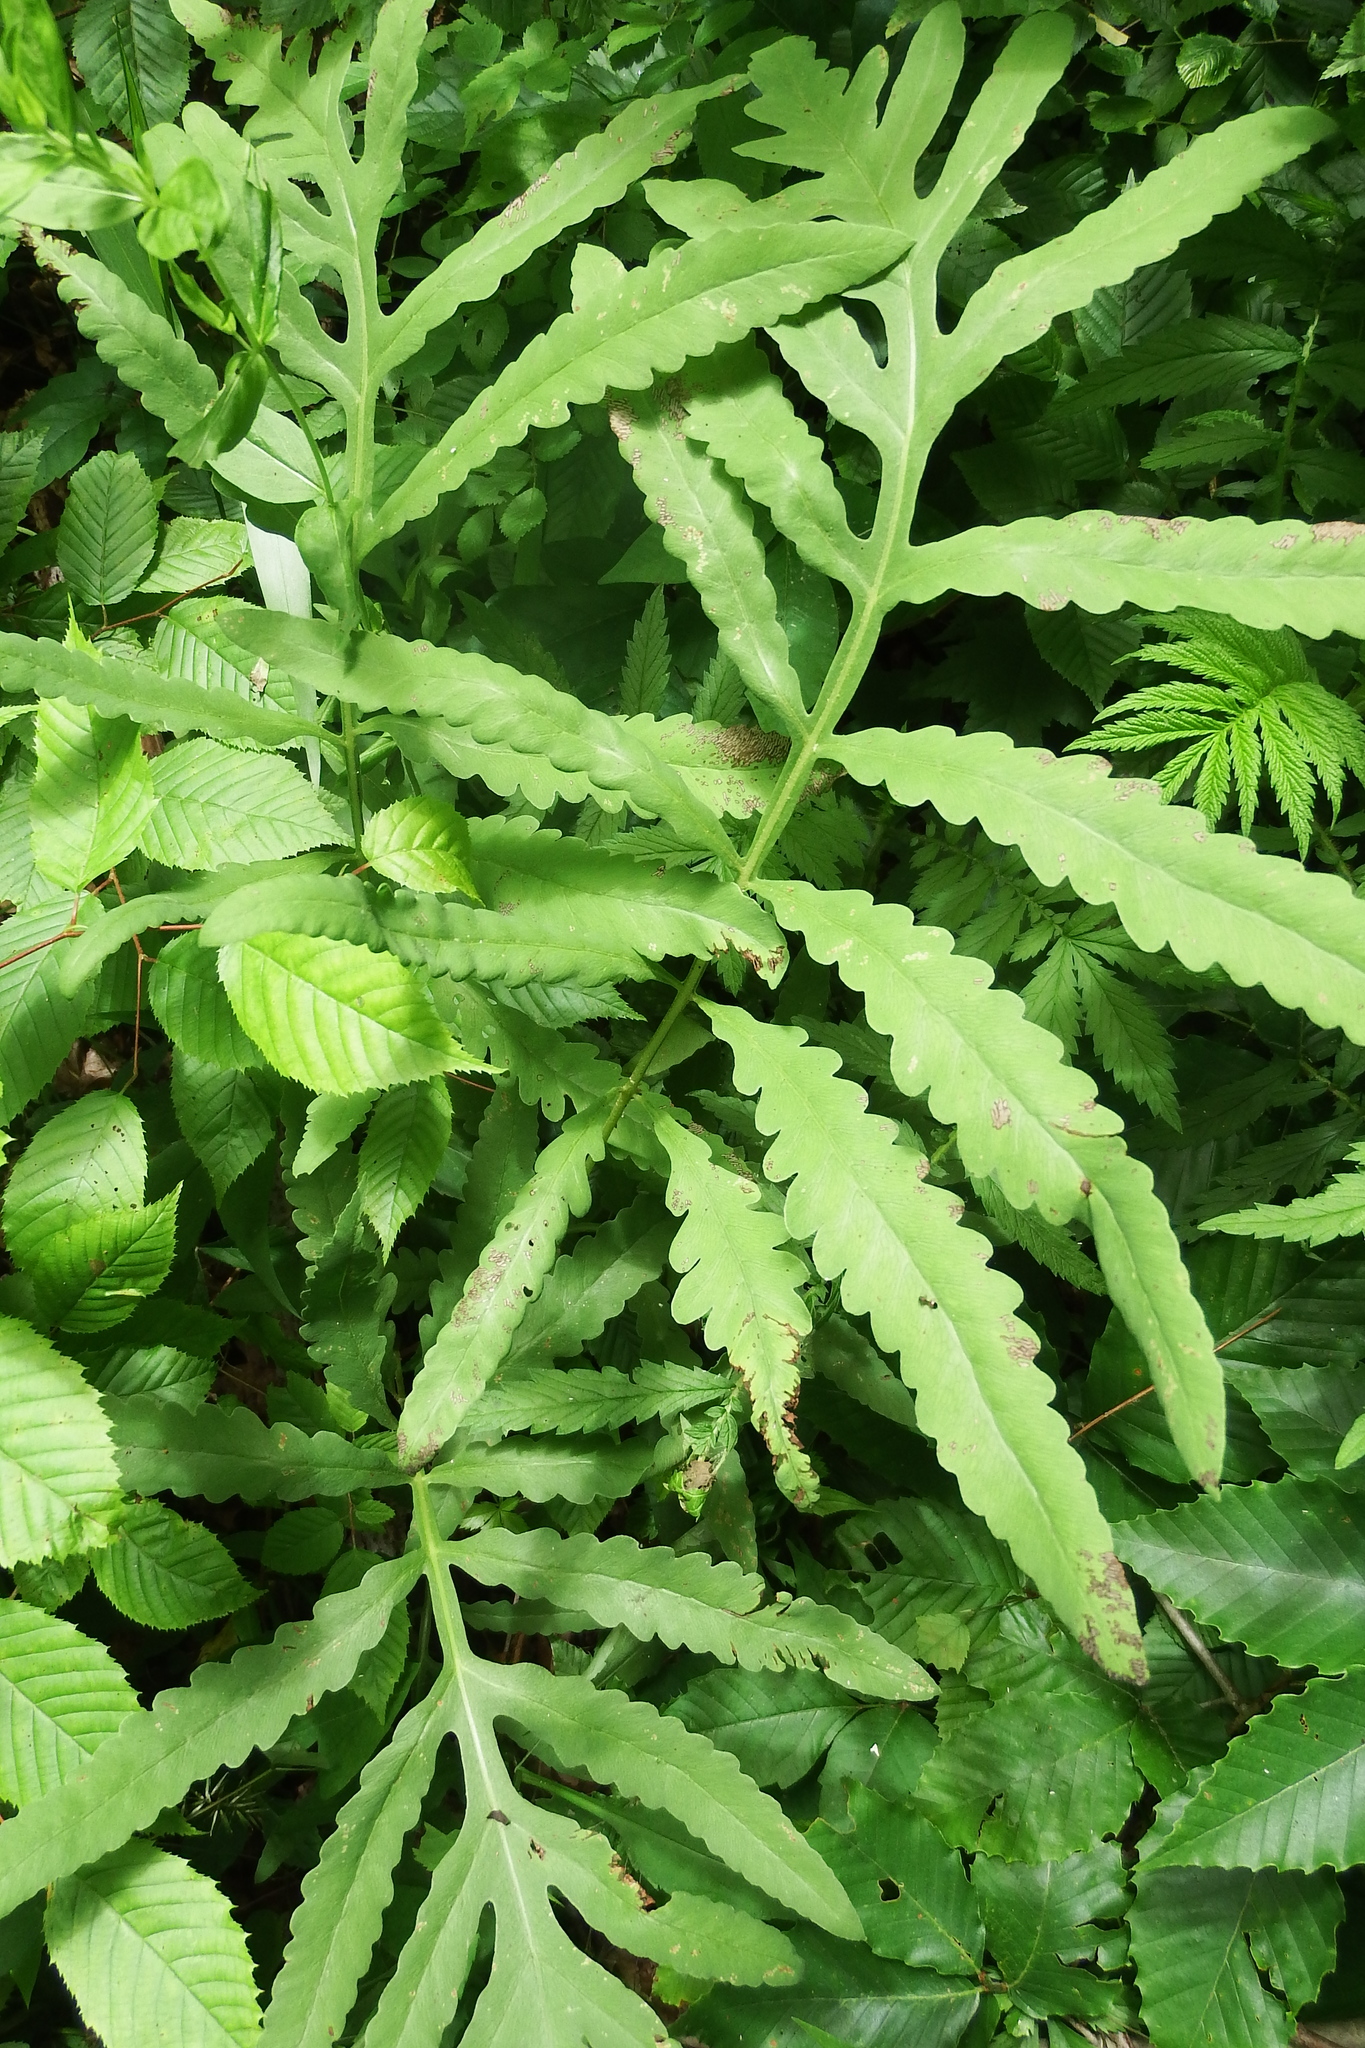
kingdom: Plantae
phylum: Tracheophyta
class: Polypodiopsida
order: Polypodiales
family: Onocleaceae
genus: Onoclea
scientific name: Onoclea sensibilis
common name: Sensitive fern
